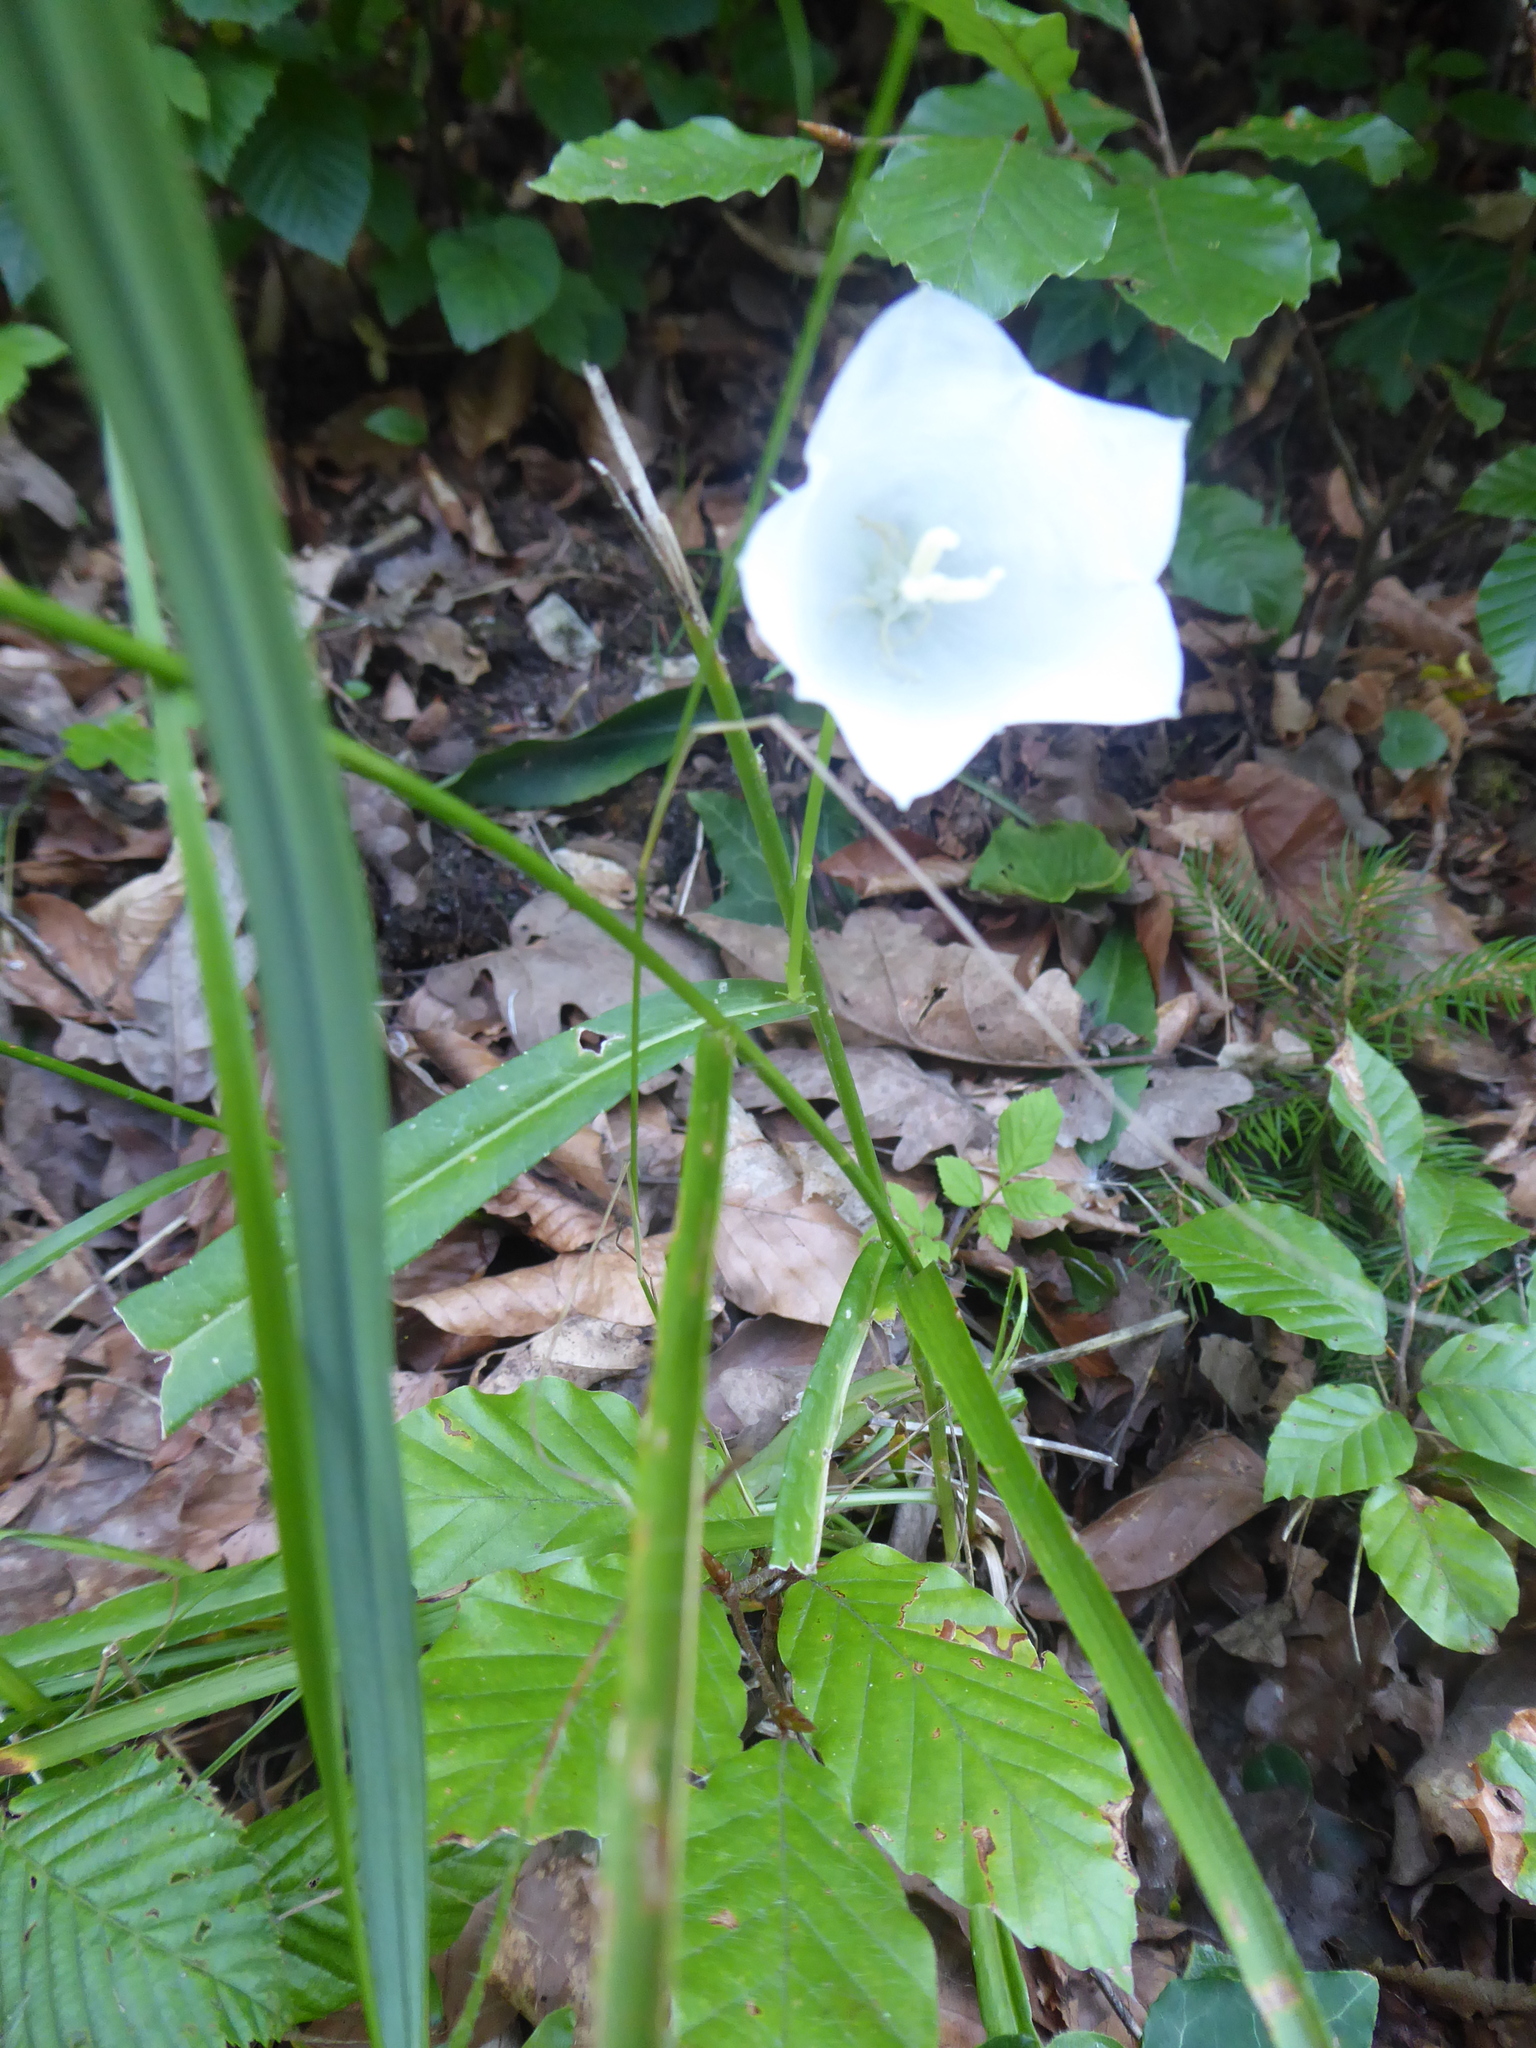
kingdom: Plantae
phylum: Tracheophyta
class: Magnoliopsida
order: Asterales
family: Campanulaceae
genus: Campanula
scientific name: Campanula persicifolia
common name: Peach-leaved bellflower
